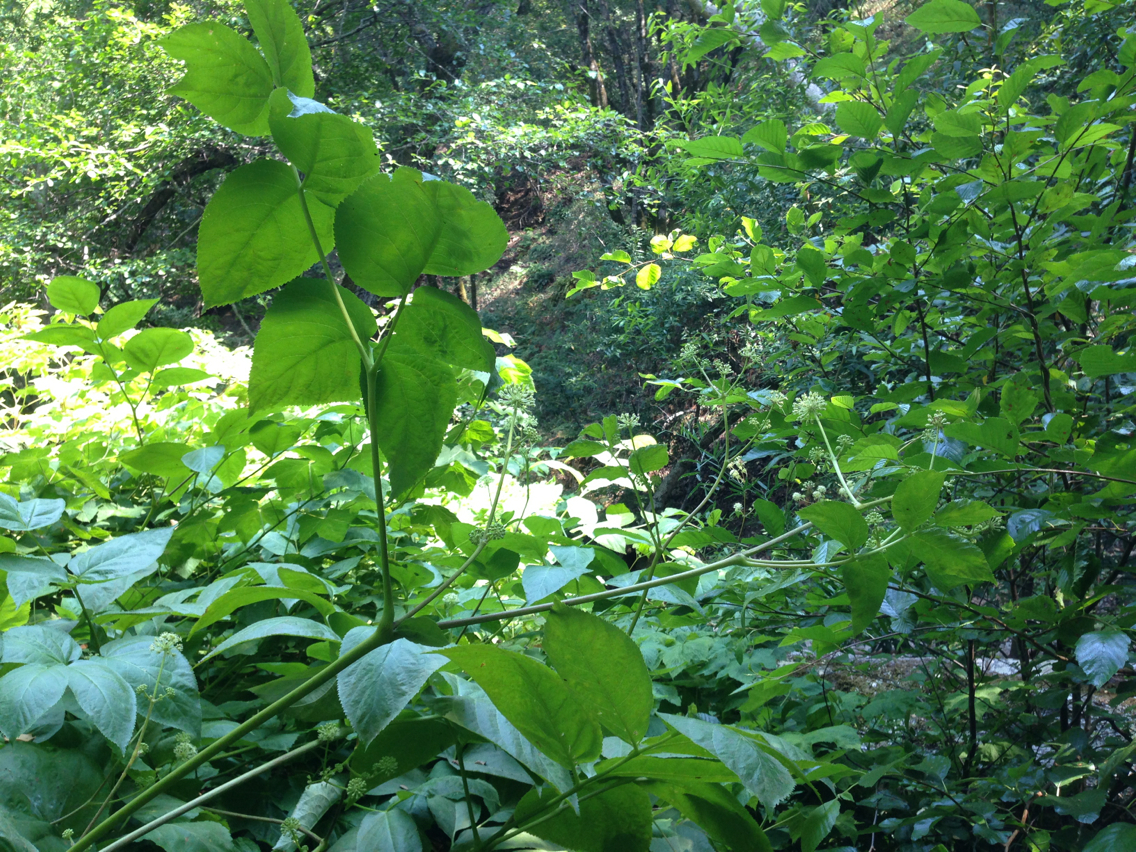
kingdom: Plantae
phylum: Tracheophyta
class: Magnoliopsida
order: Apiales
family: Araliaceae
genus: Aralia
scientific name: Aralia californica
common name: California-ginseng
